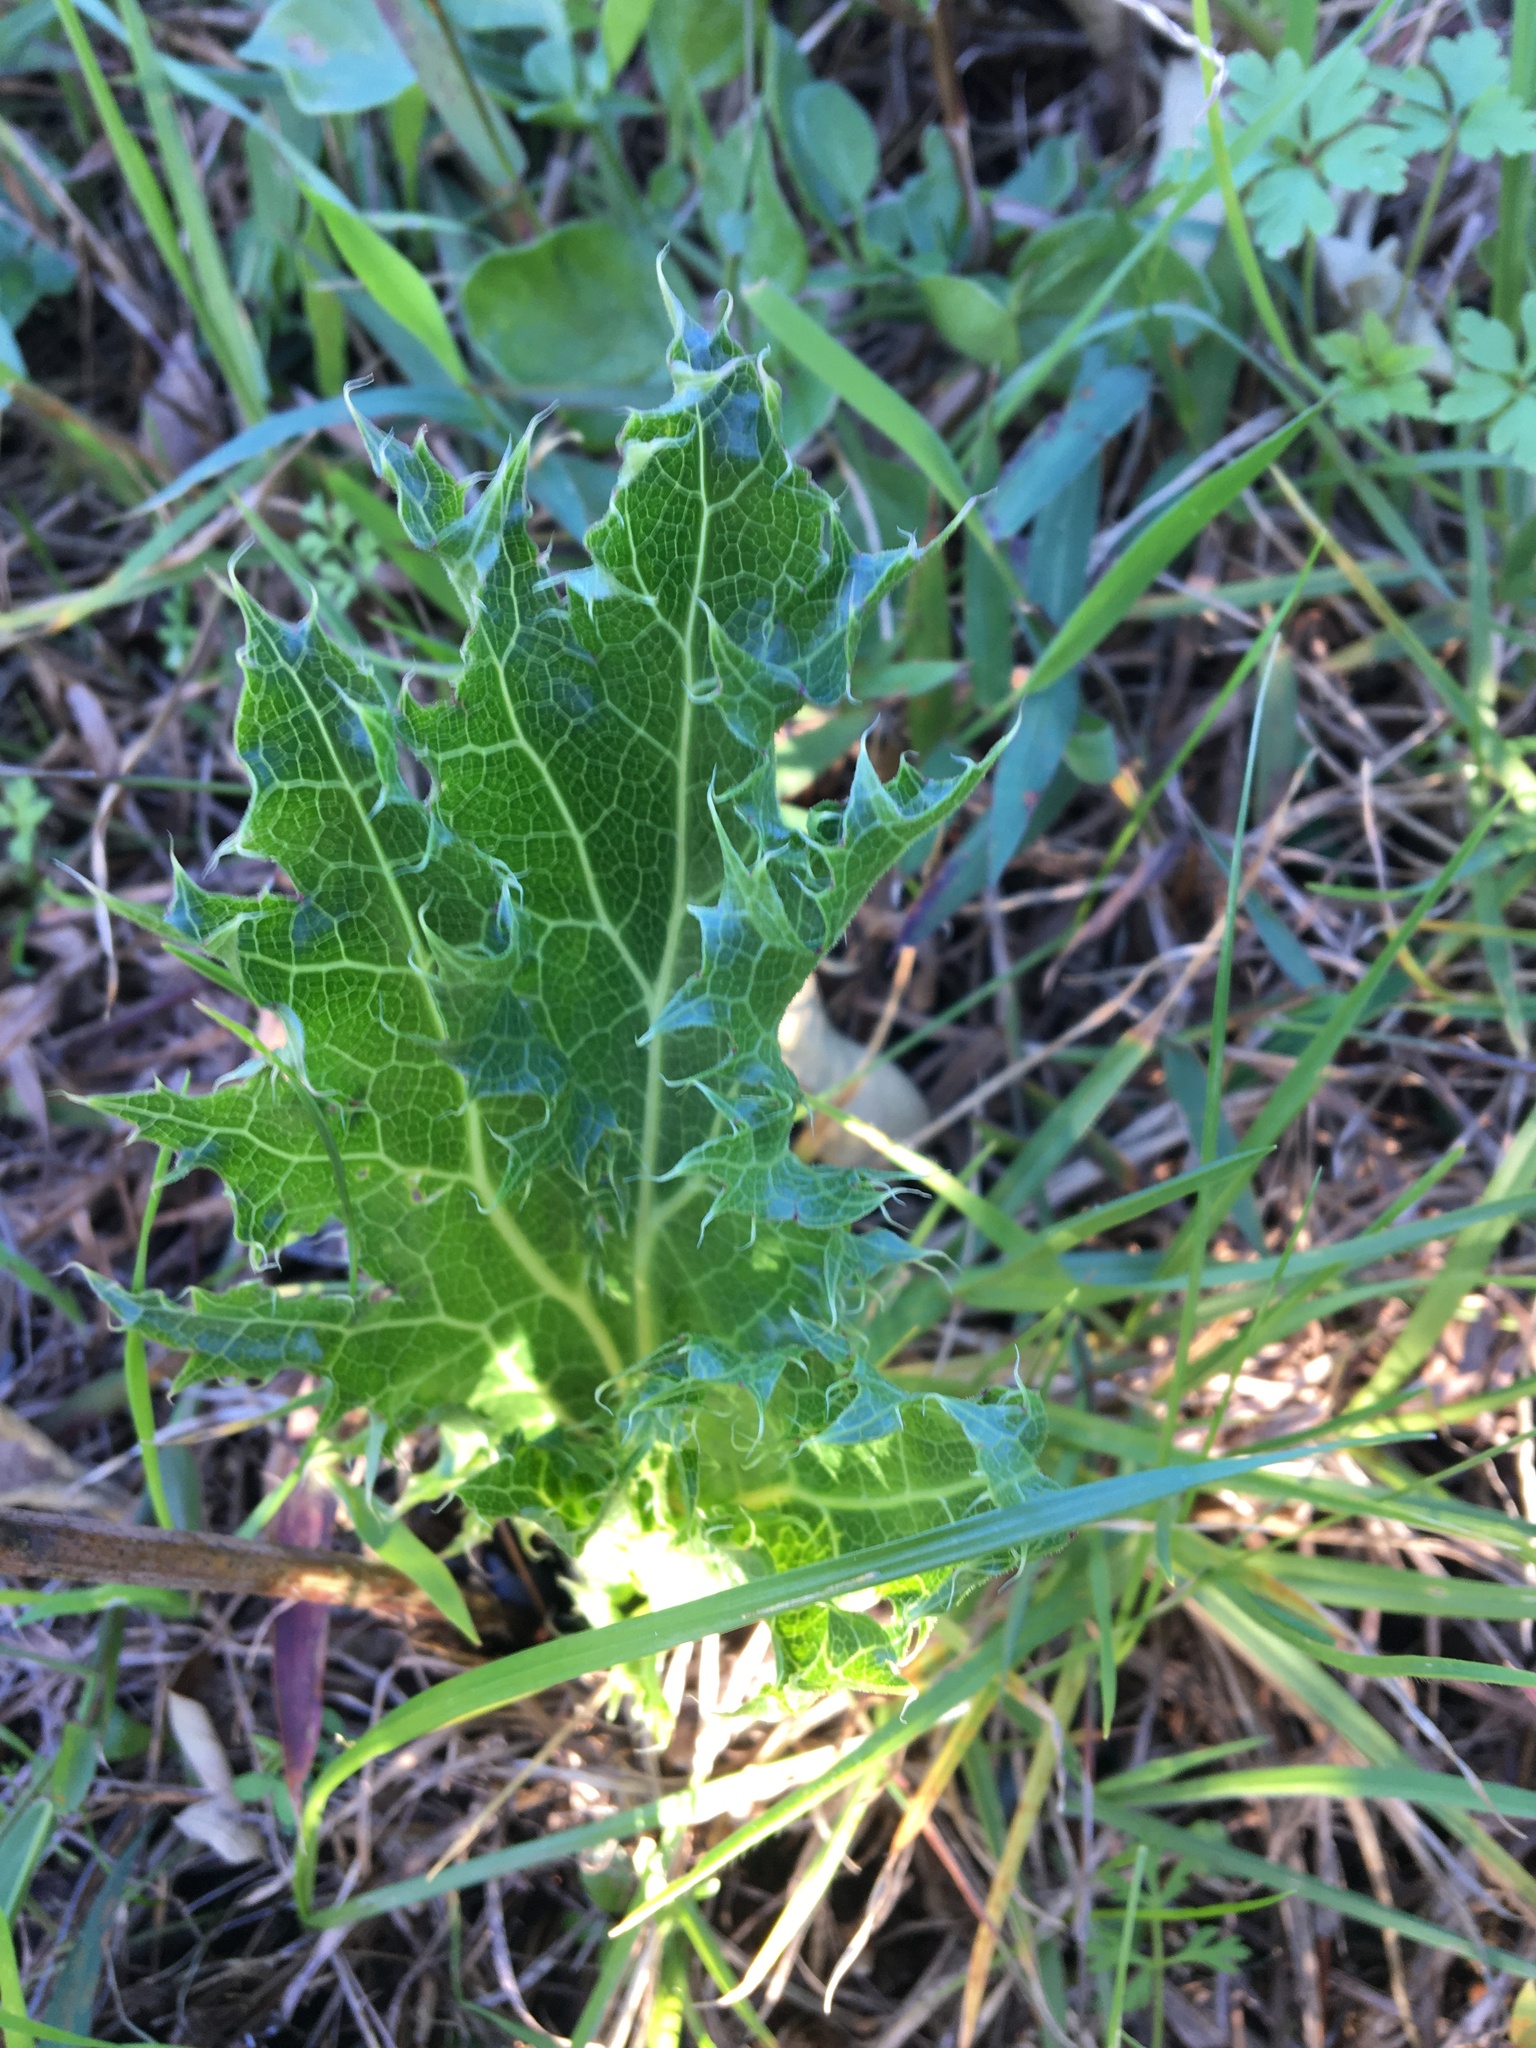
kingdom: Plantae
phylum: Tracheophyta
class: Magnoliopsida
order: Apiales
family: Apiaceae
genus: Lichtensteinia
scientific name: Lichtensteinia lacera
